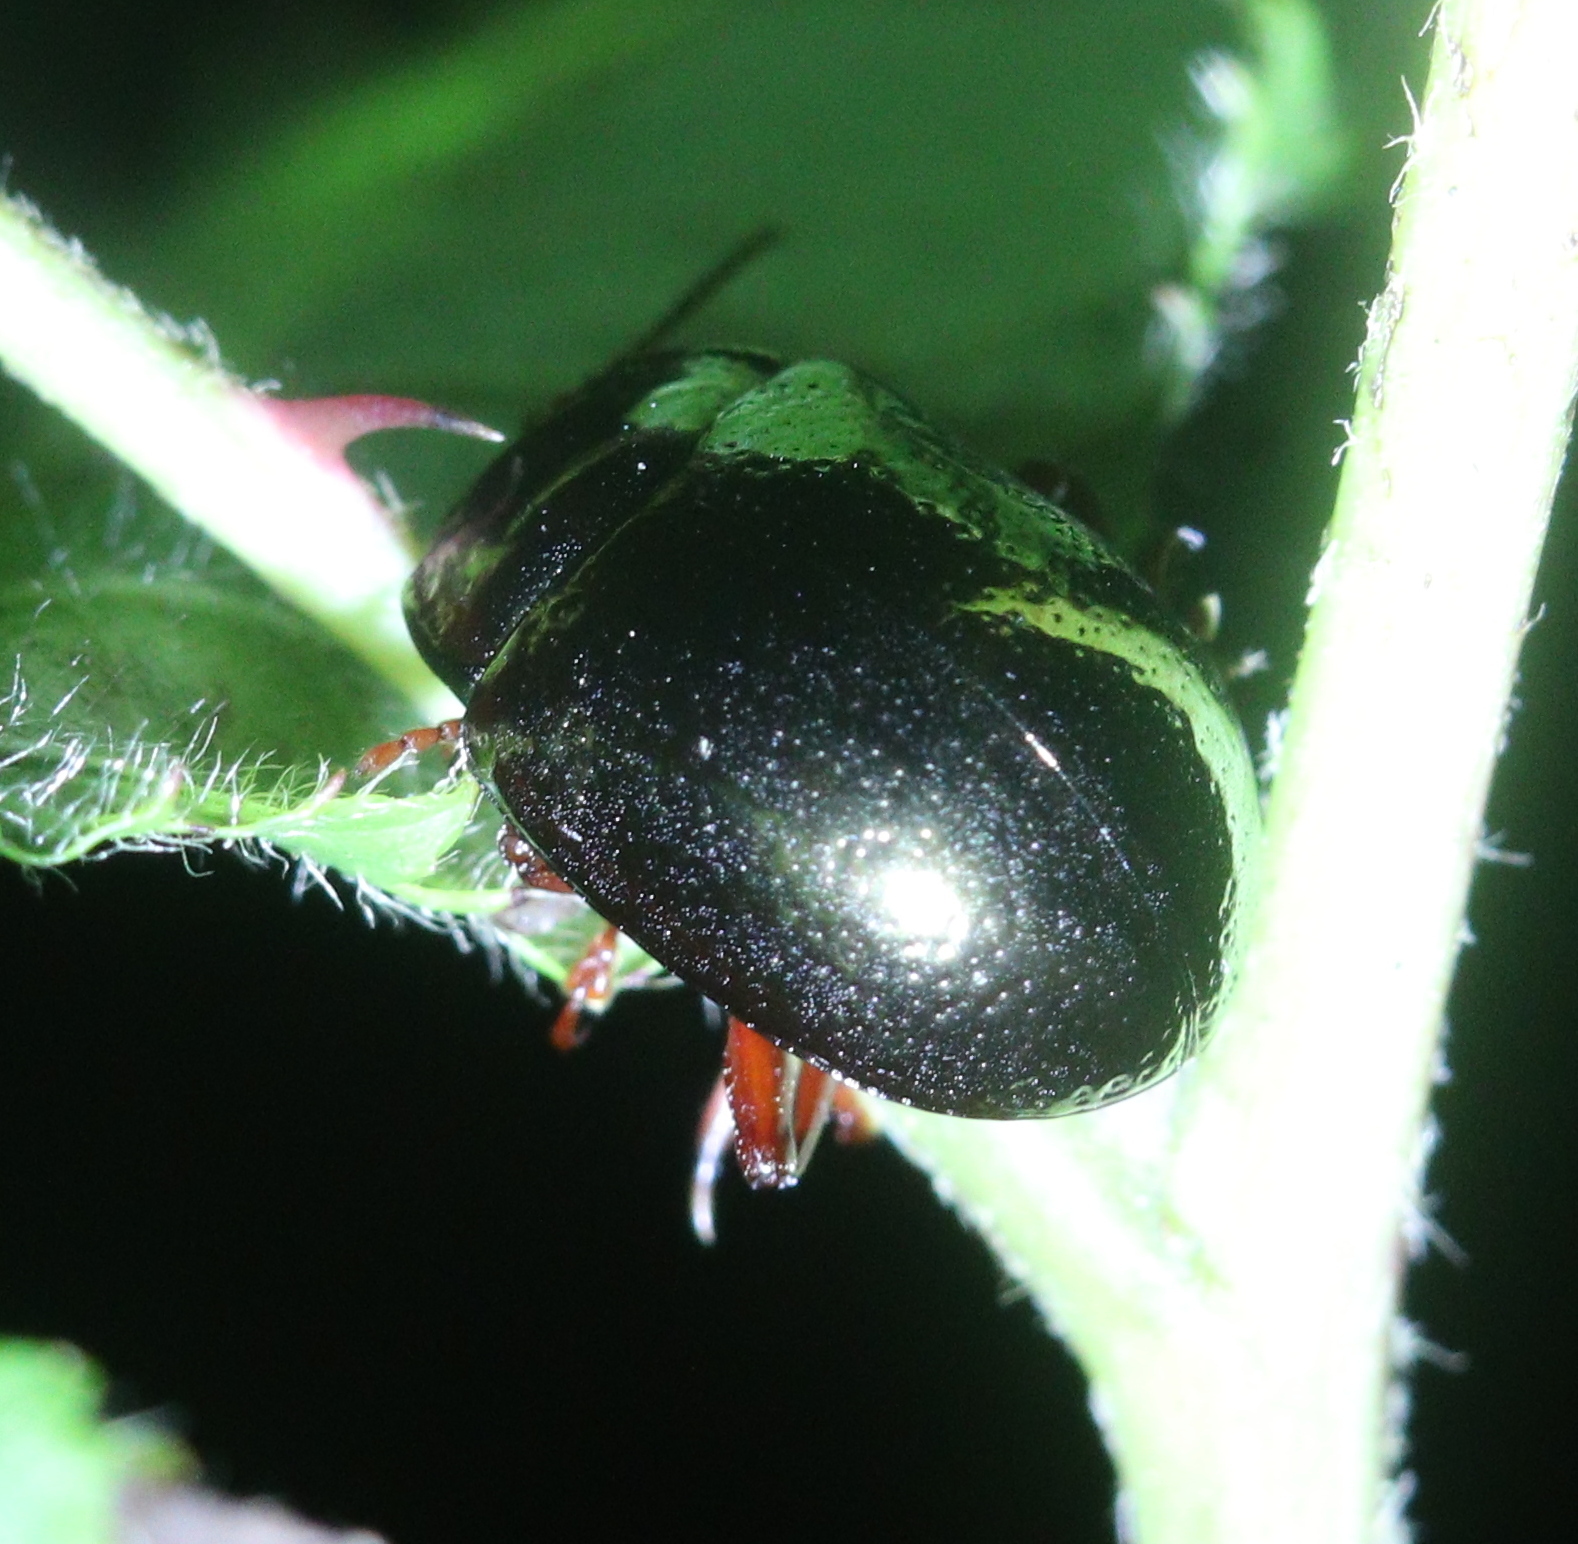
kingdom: Animalia
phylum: Arthropoda
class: Insecta
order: Coleoptera
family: Chrysomelidae
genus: Chrysolina
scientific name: Chrysolina bankii
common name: Leaf beetle
